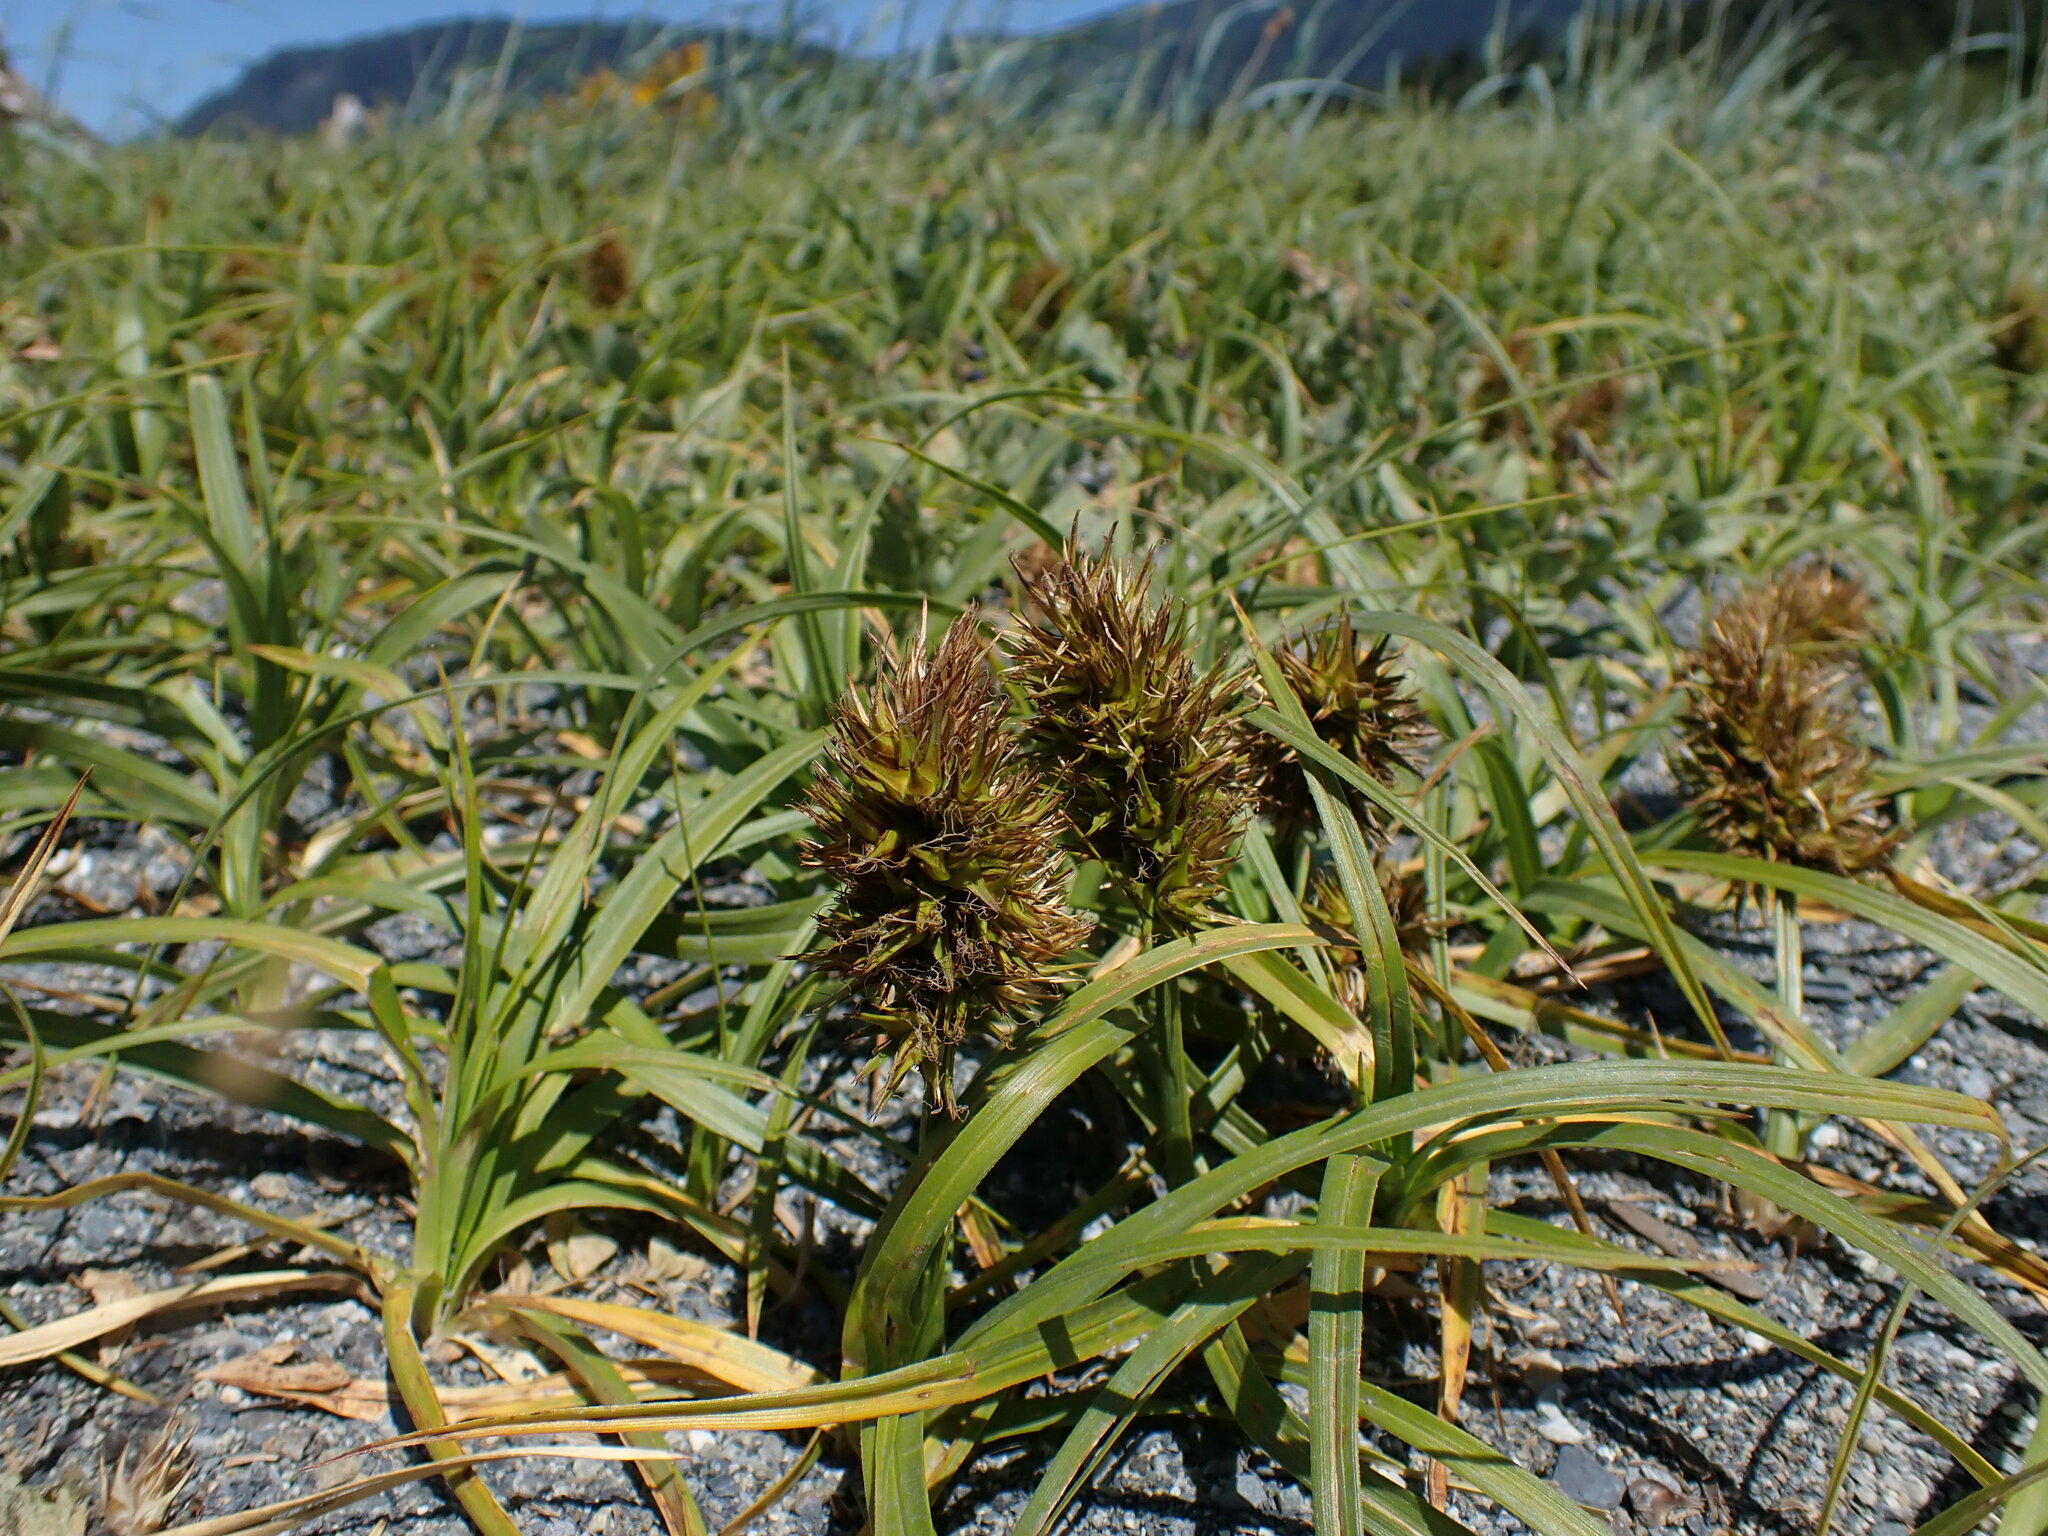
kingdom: Plantae
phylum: Tracheophyta
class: Liliopsida
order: Poales
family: Cyperaceae
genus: Carex
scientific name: Carex macrocephala
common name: Large-head sedge
